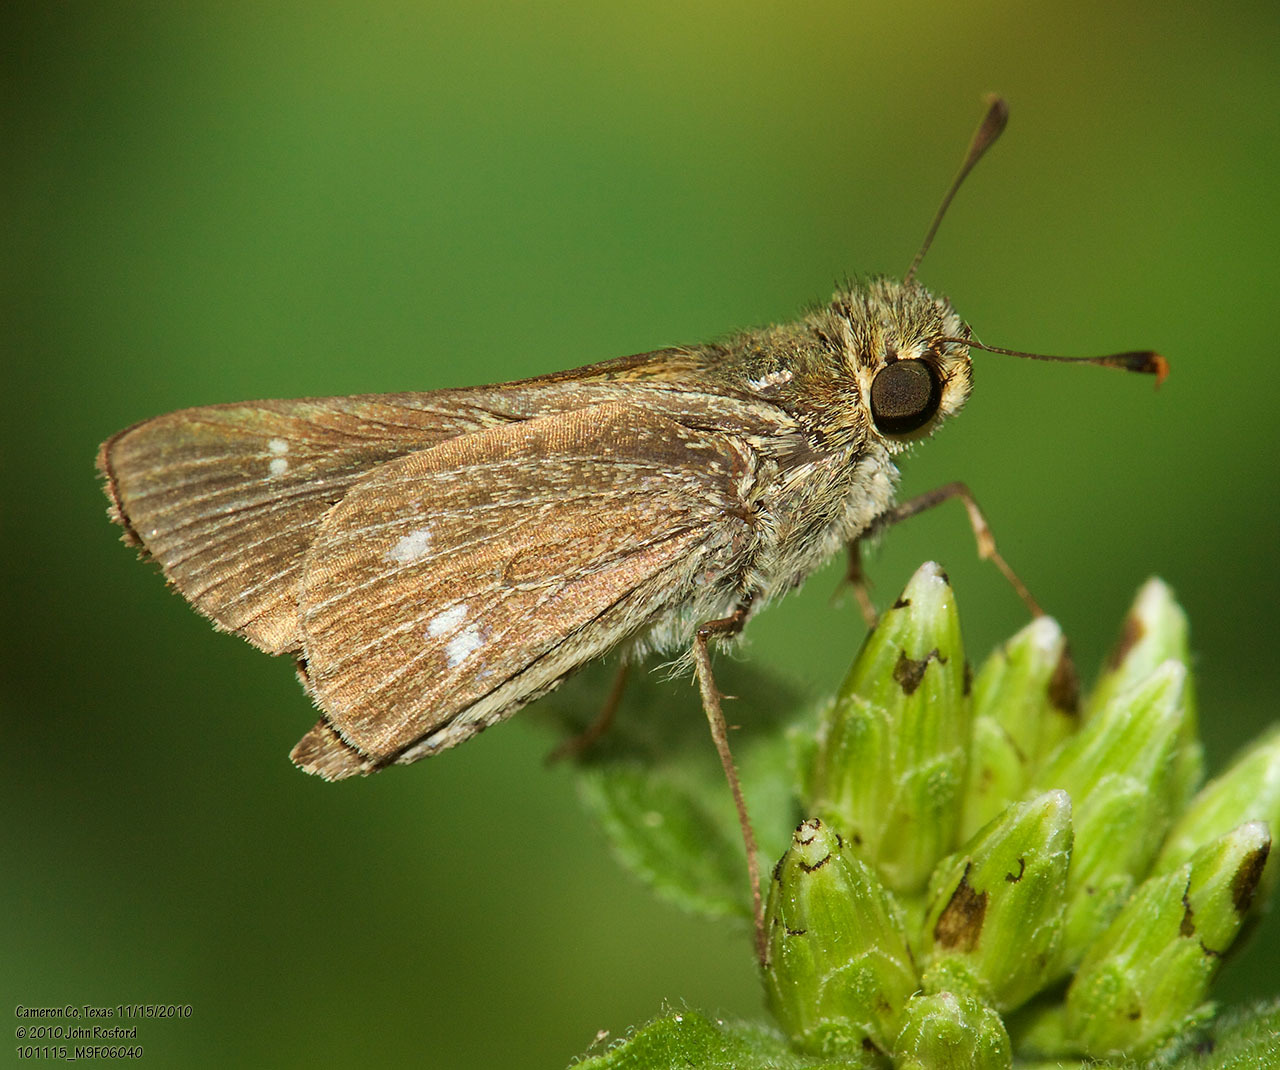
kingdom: Animalia
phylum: Arthropoda
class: Insecta
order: Lepidoptera
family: Hesperiidae
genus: Panoquina
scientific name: Panoquina panoquinoides
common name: Beach skipper
